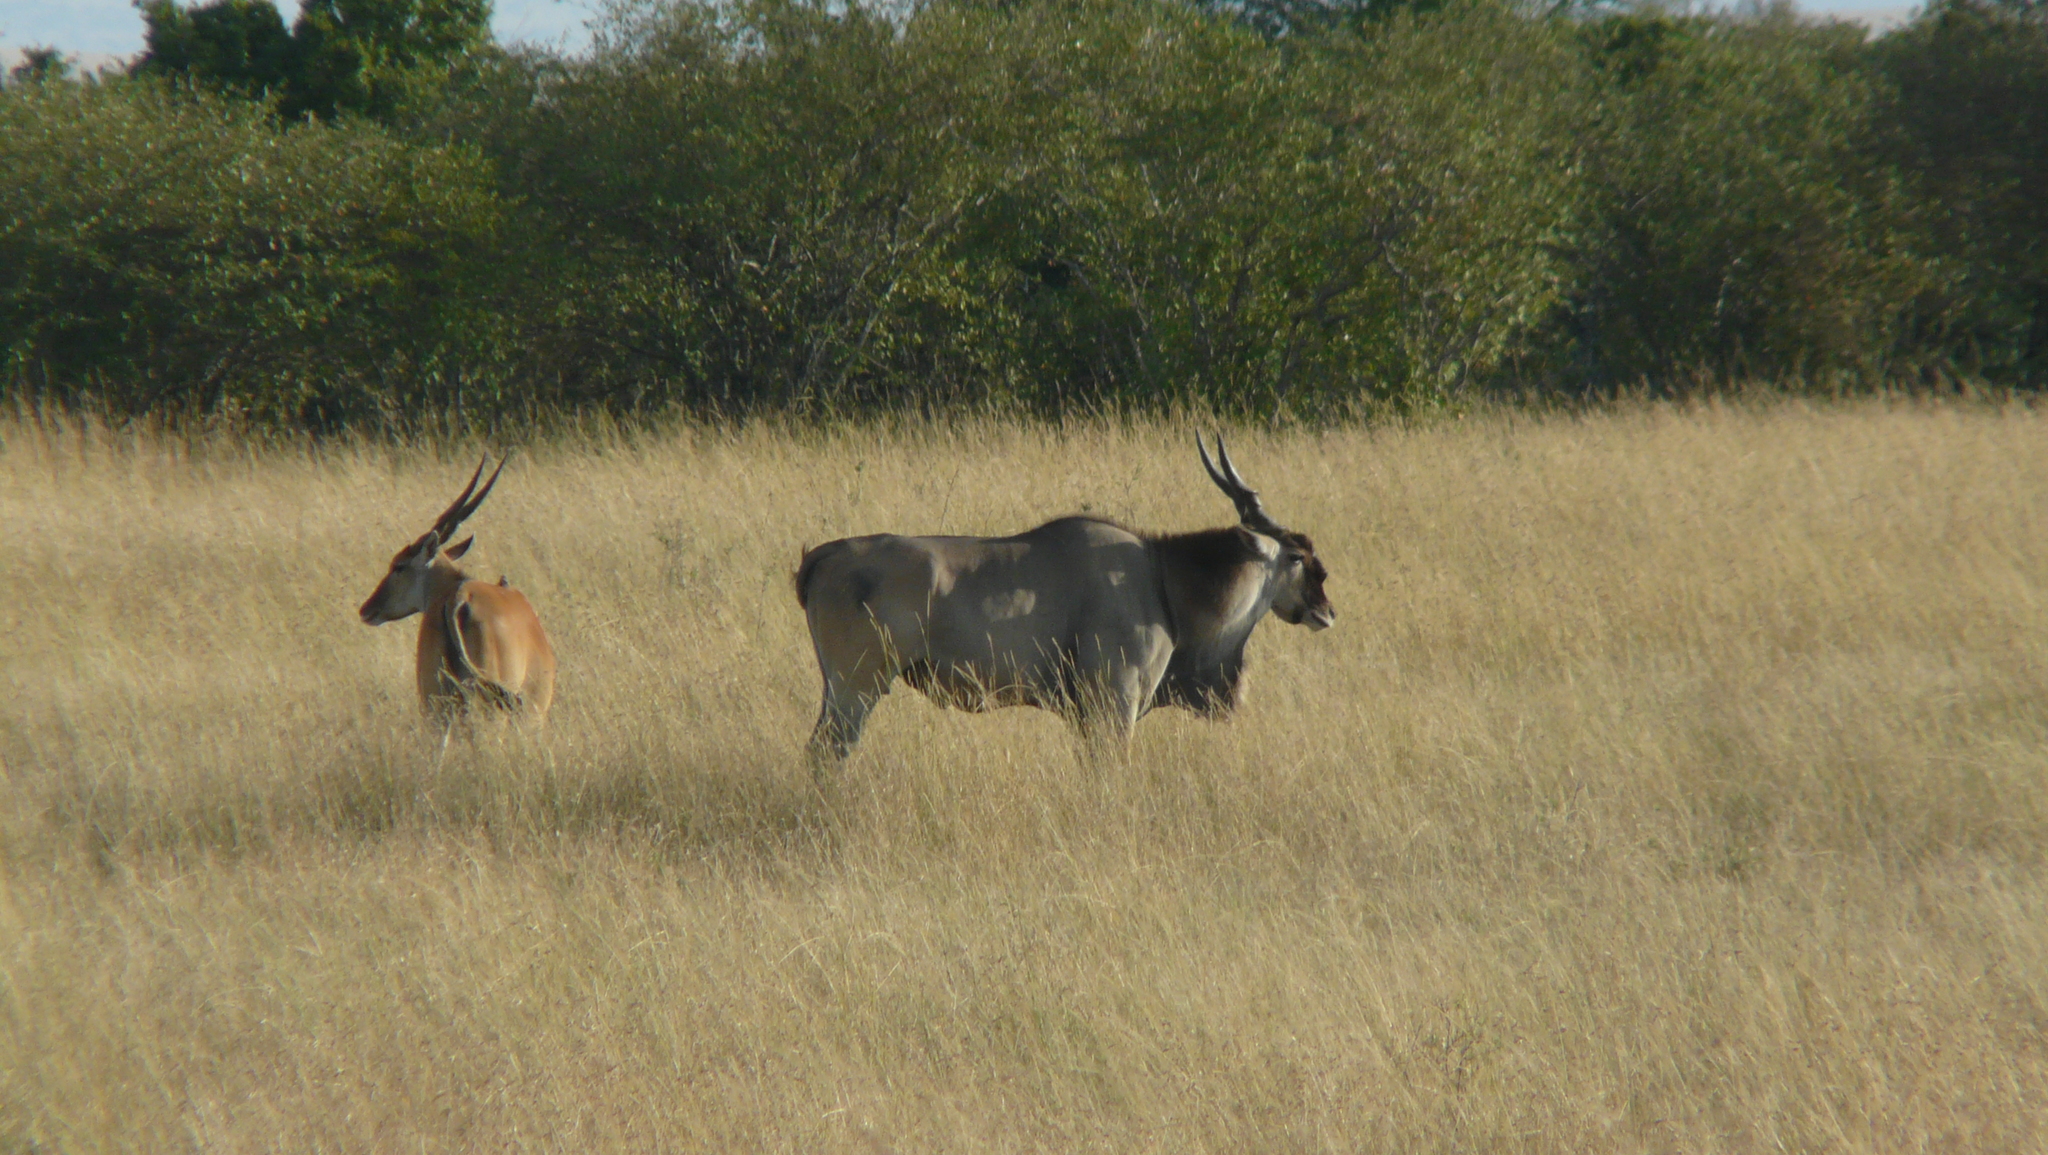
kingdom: Animalia
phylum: Chordata
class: Mammalia
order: Artiodactyla
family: Bovidae
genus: Taurotragus
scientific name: Taurotragus oryx
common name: Common eland
